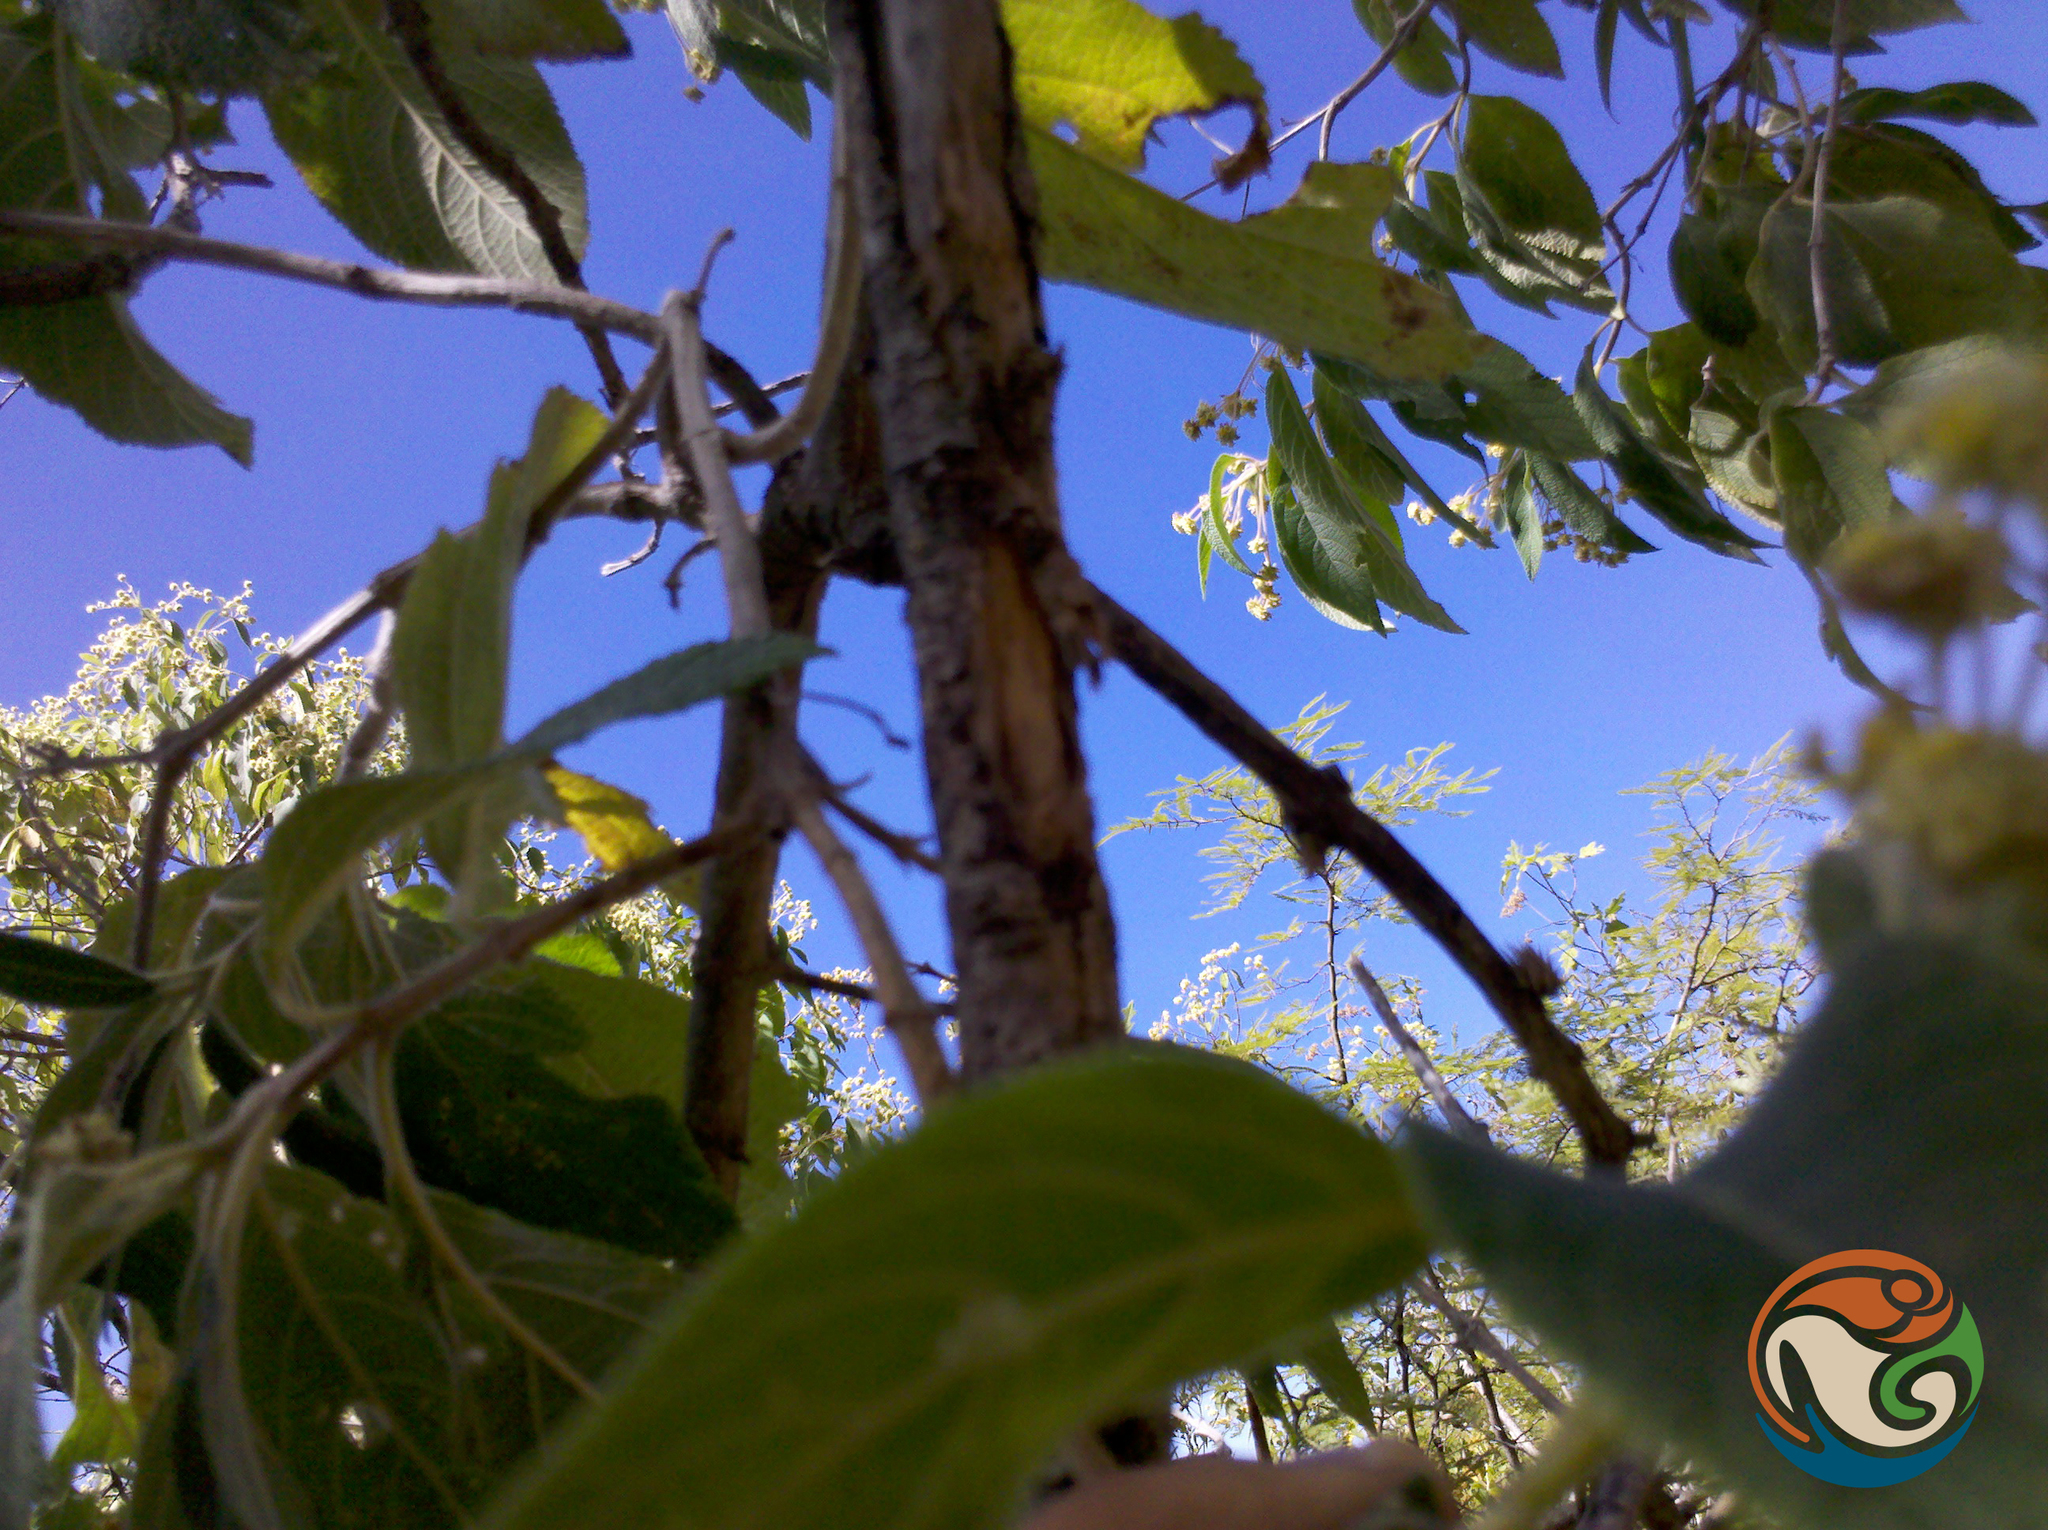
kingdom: Plantae
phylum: Tracheophyta
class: Magnoliopsida
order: Lamiales
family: Verbenaceae
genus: Lippia
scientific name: Lippia myriocephala
